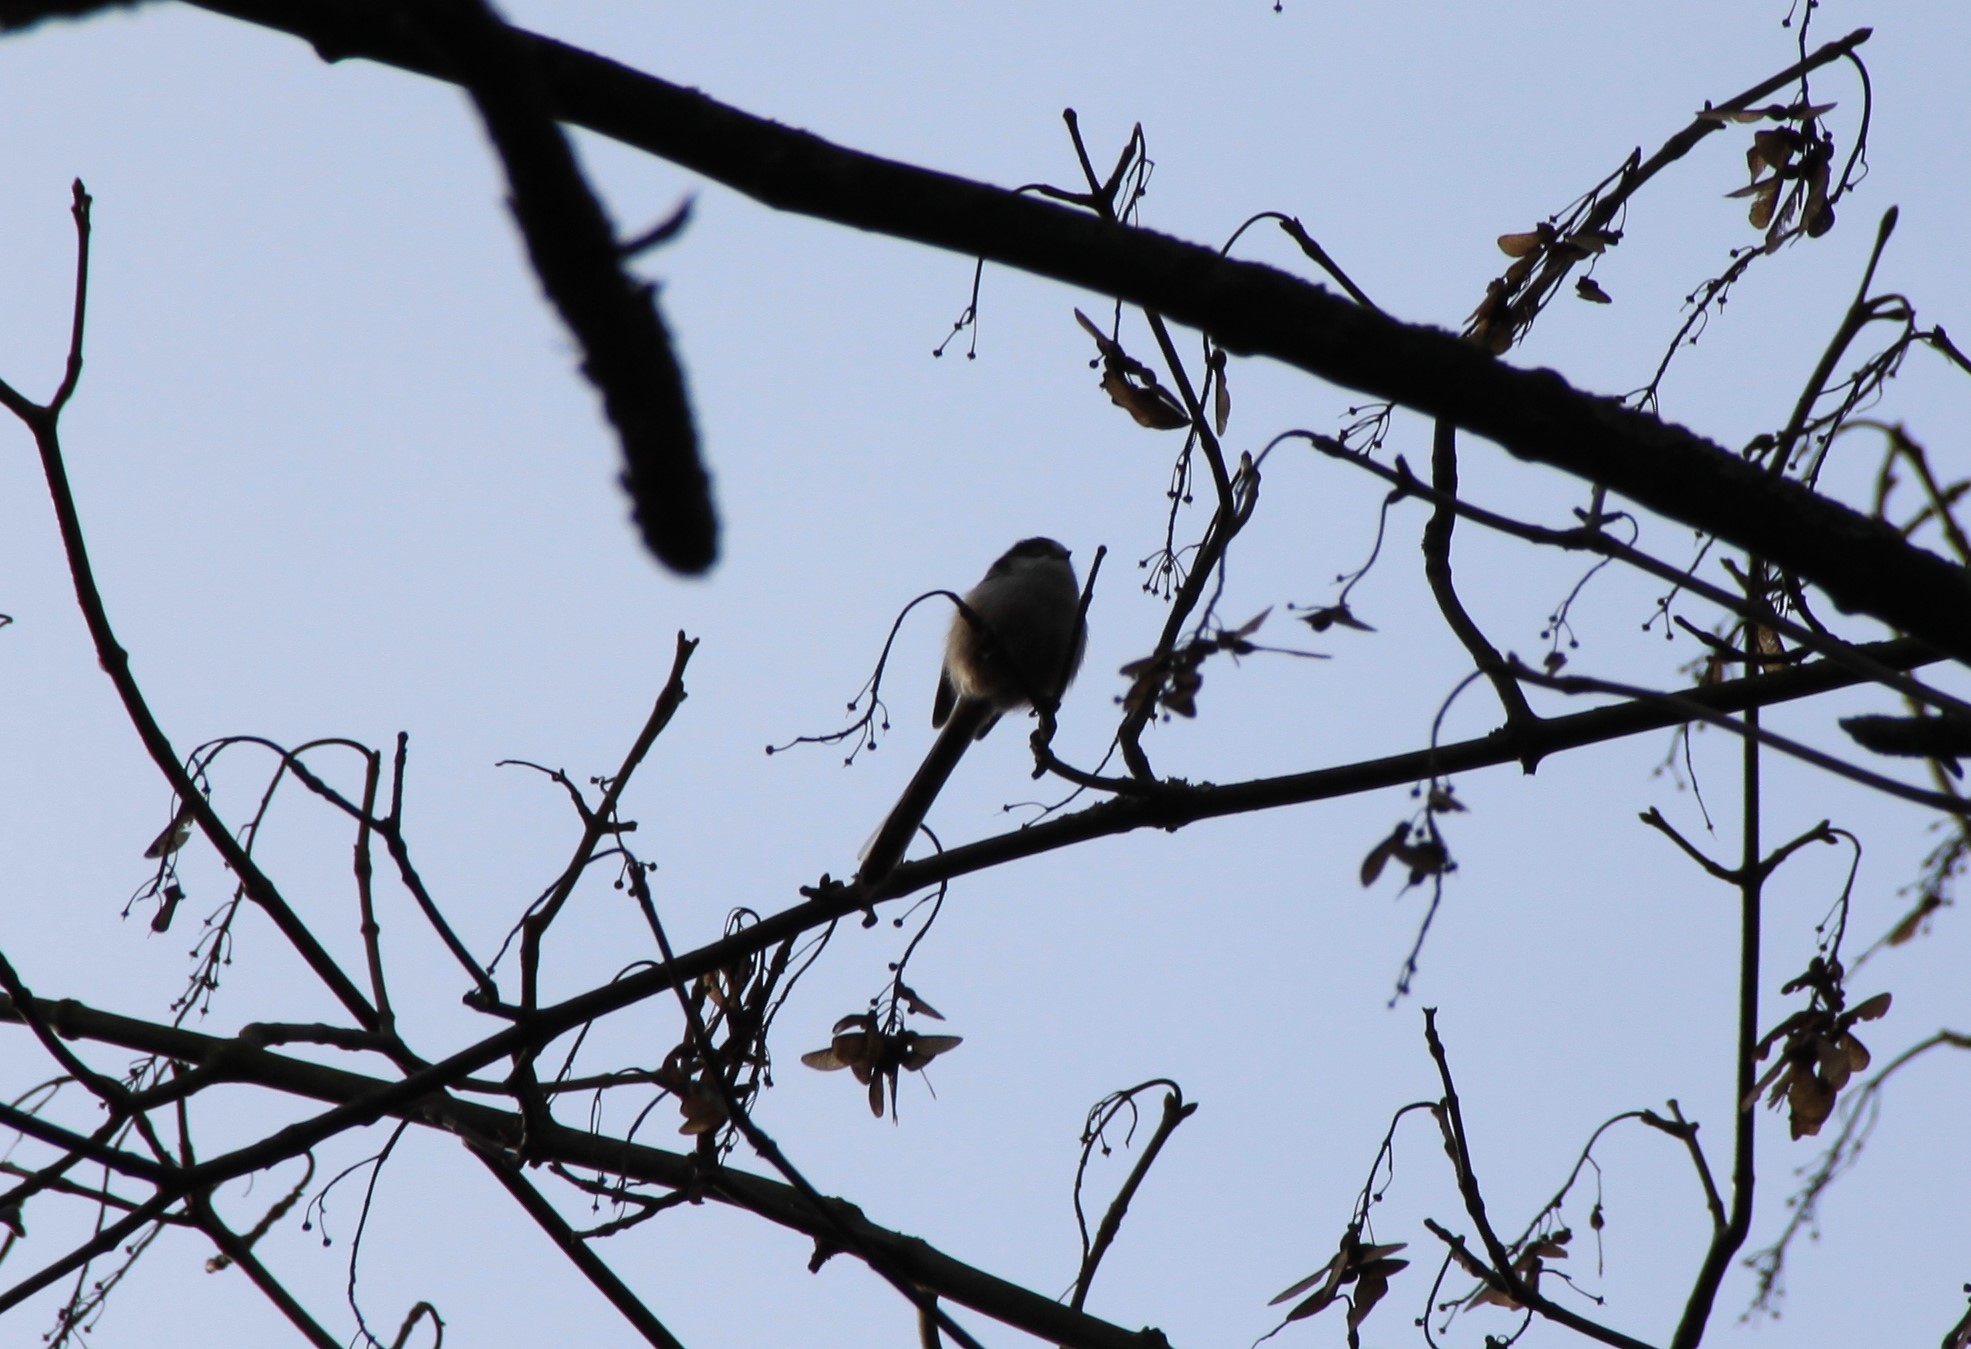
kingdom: Animalia
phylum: Chordata
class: Aves
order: Passeriformes
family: Aegithalidae
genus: Aegithalos
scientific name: Aegithalos caudatus
